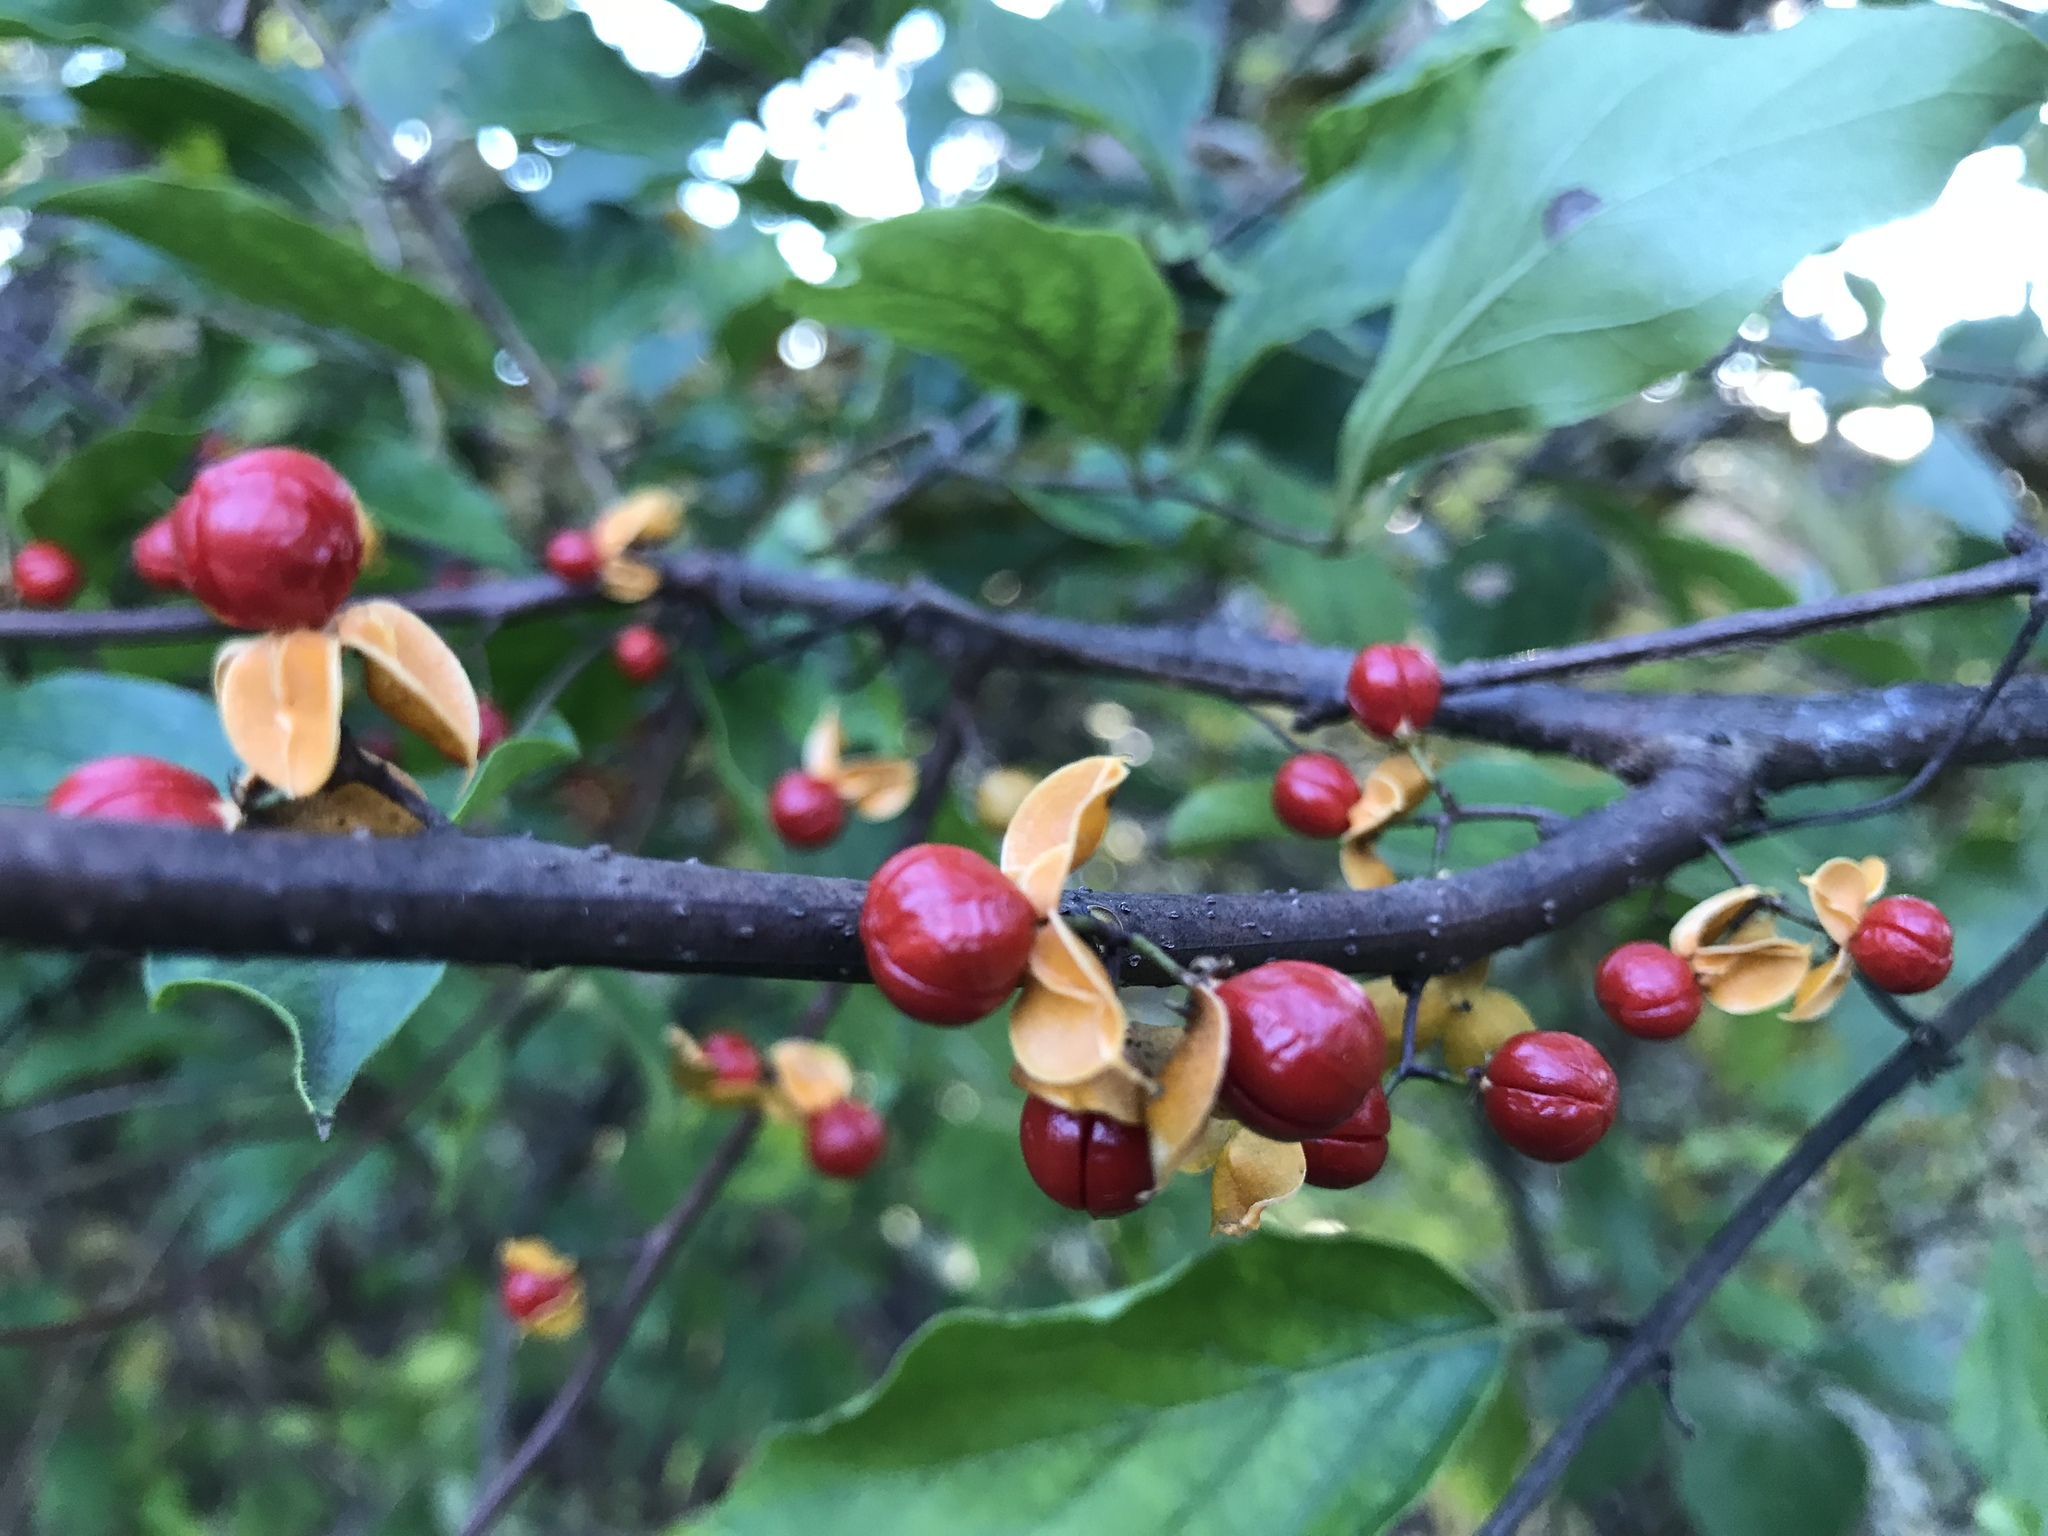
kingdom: Plantae
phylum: Tracheophyta
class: Magnoliopsida
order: Celastrales
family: Celastraceae
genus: Celastrus
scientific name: Celastrus orbiculatus
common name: Oriental bittersweet
